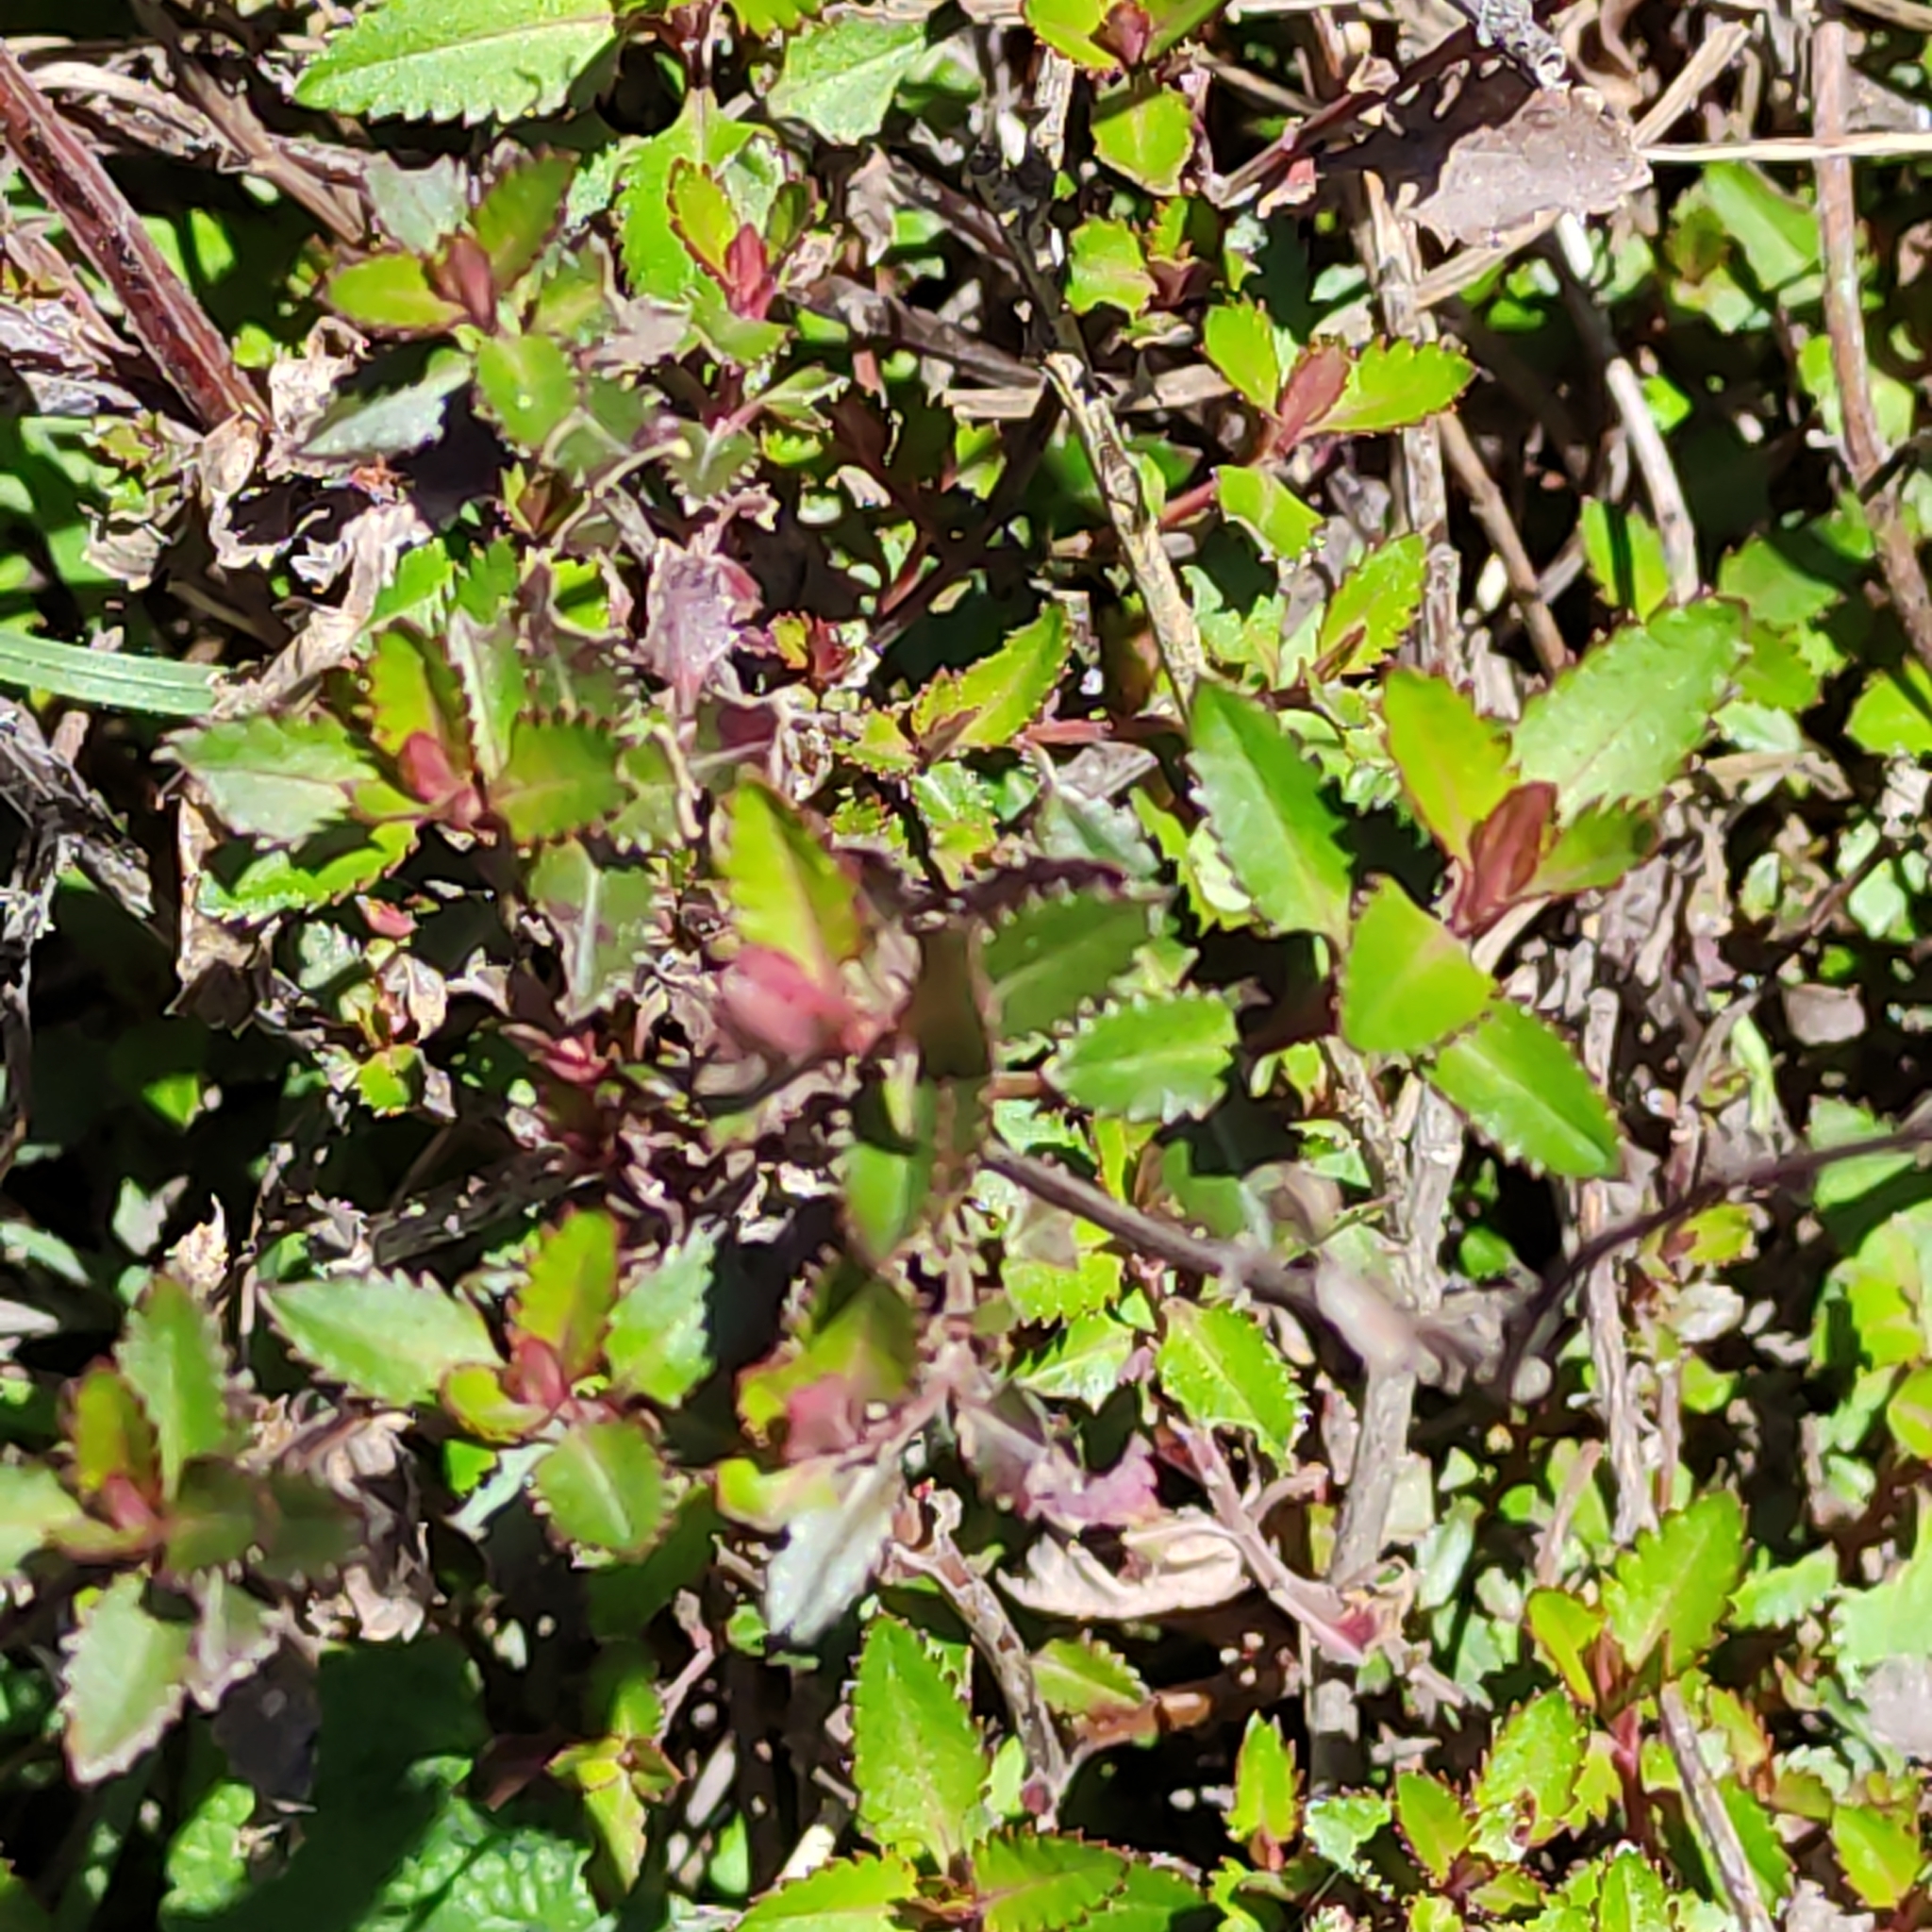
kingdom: Plantae
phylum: Tracheophyta
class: Magnoliopsida
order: Saxifragales
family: Haloragaceae
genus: Haloragis
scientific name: Haloragis erecta
